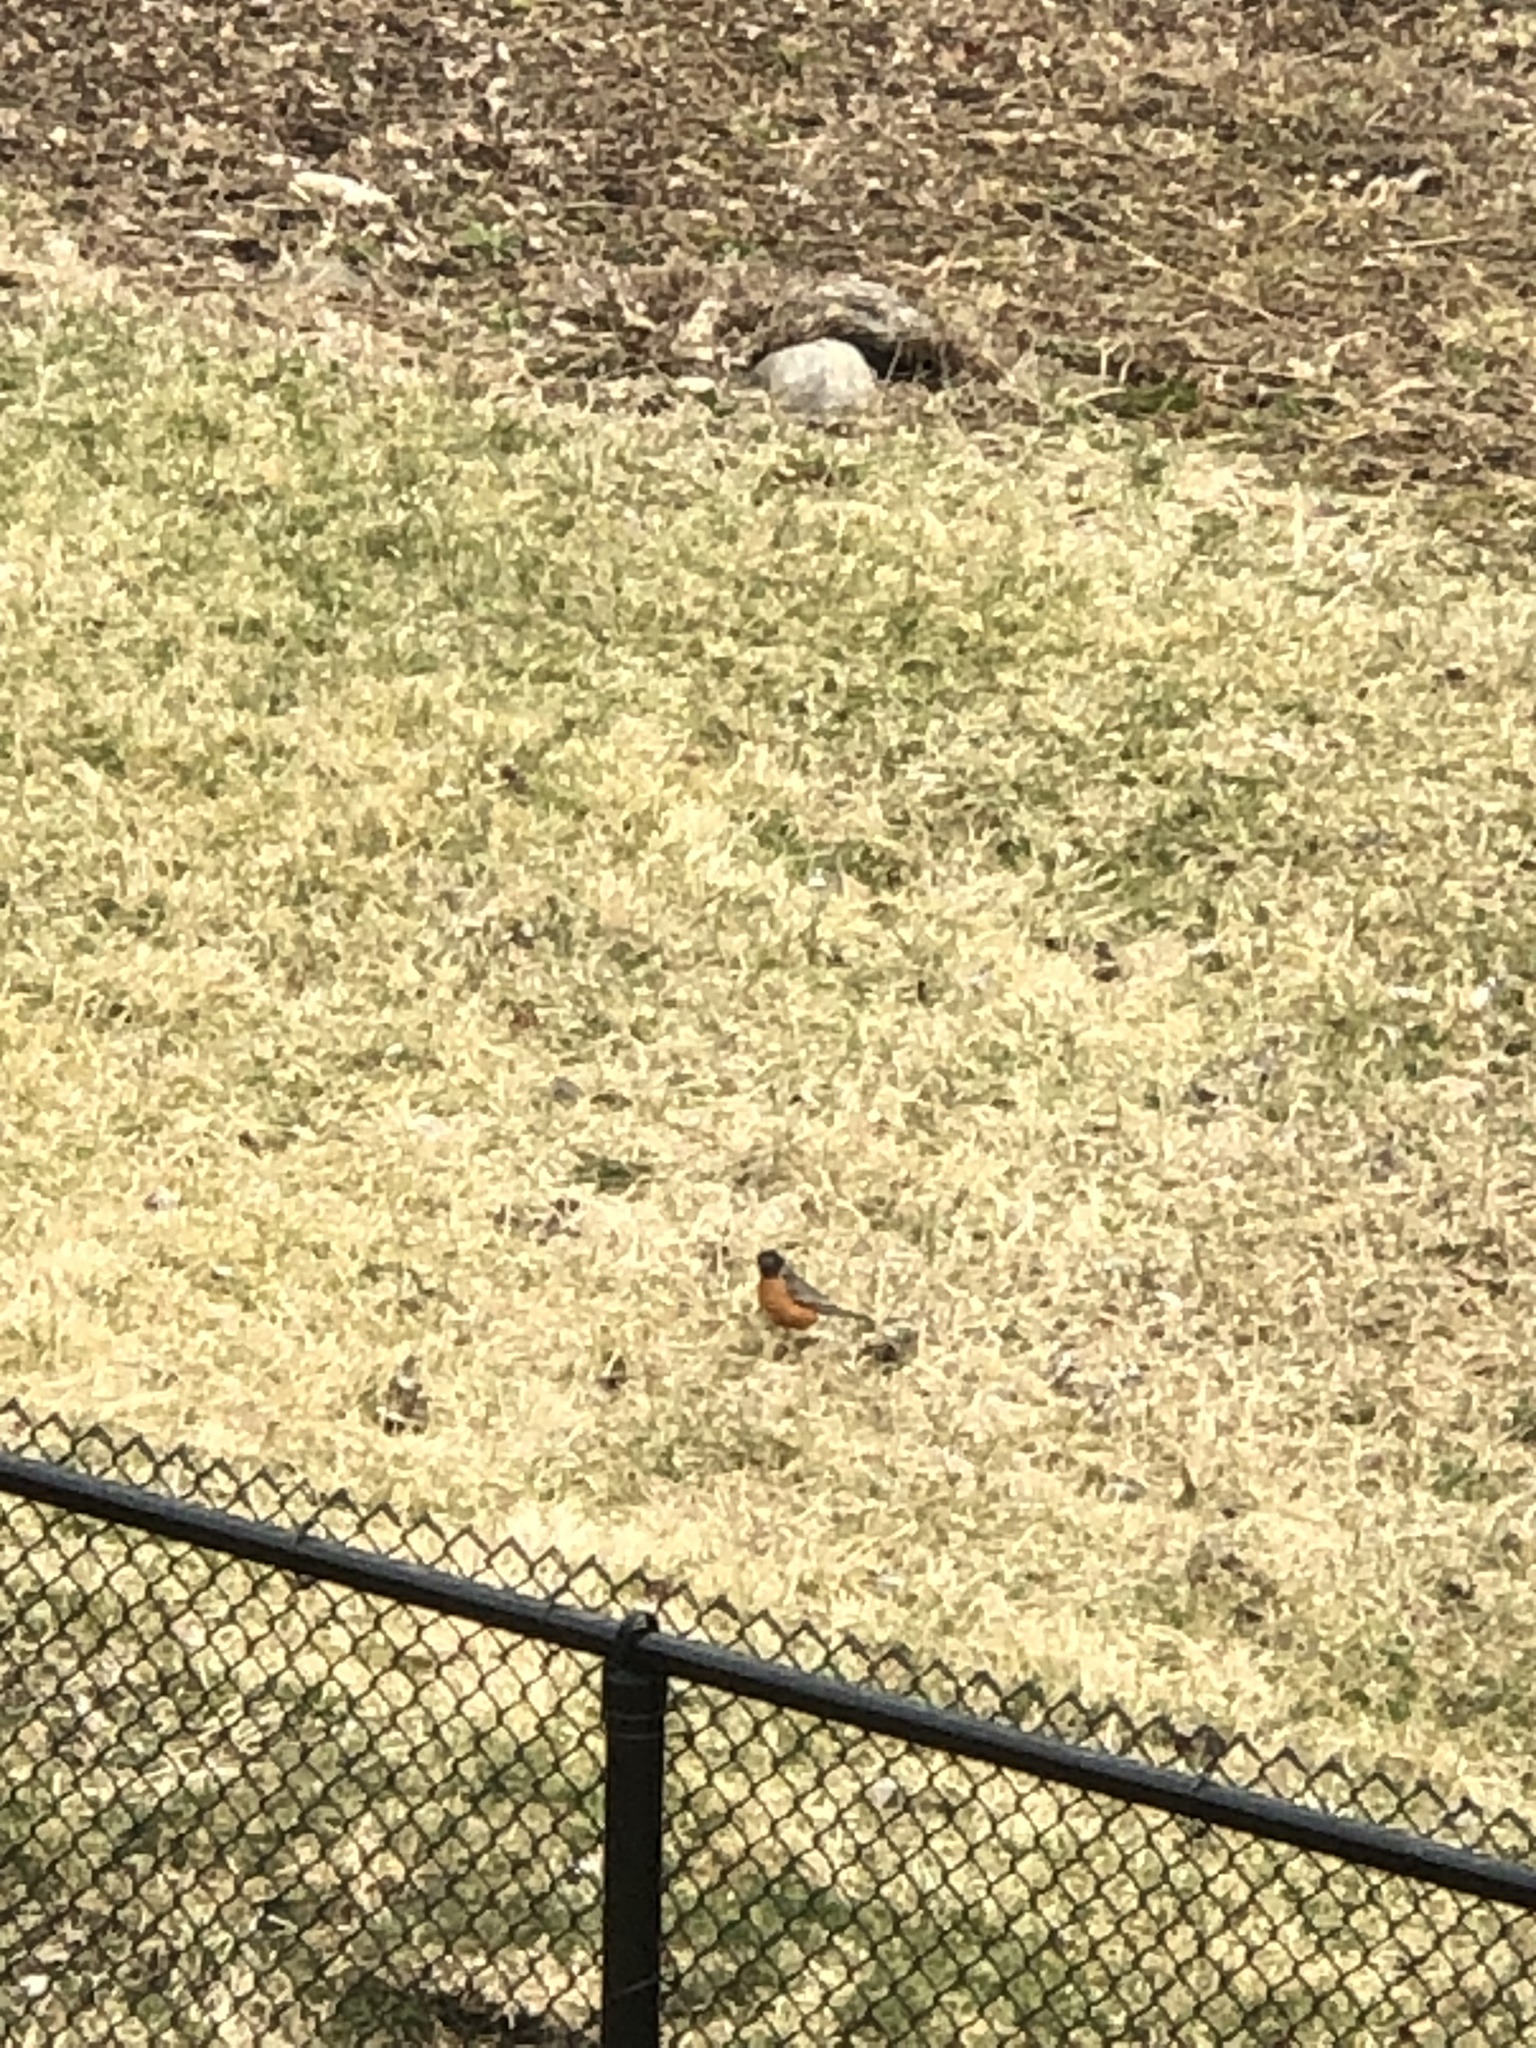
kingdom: Animalia
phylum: Chordata
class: Aves
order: Passeriformes
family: Turdidae
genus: Turdus
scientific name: Turdus migratorius
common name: American robin
